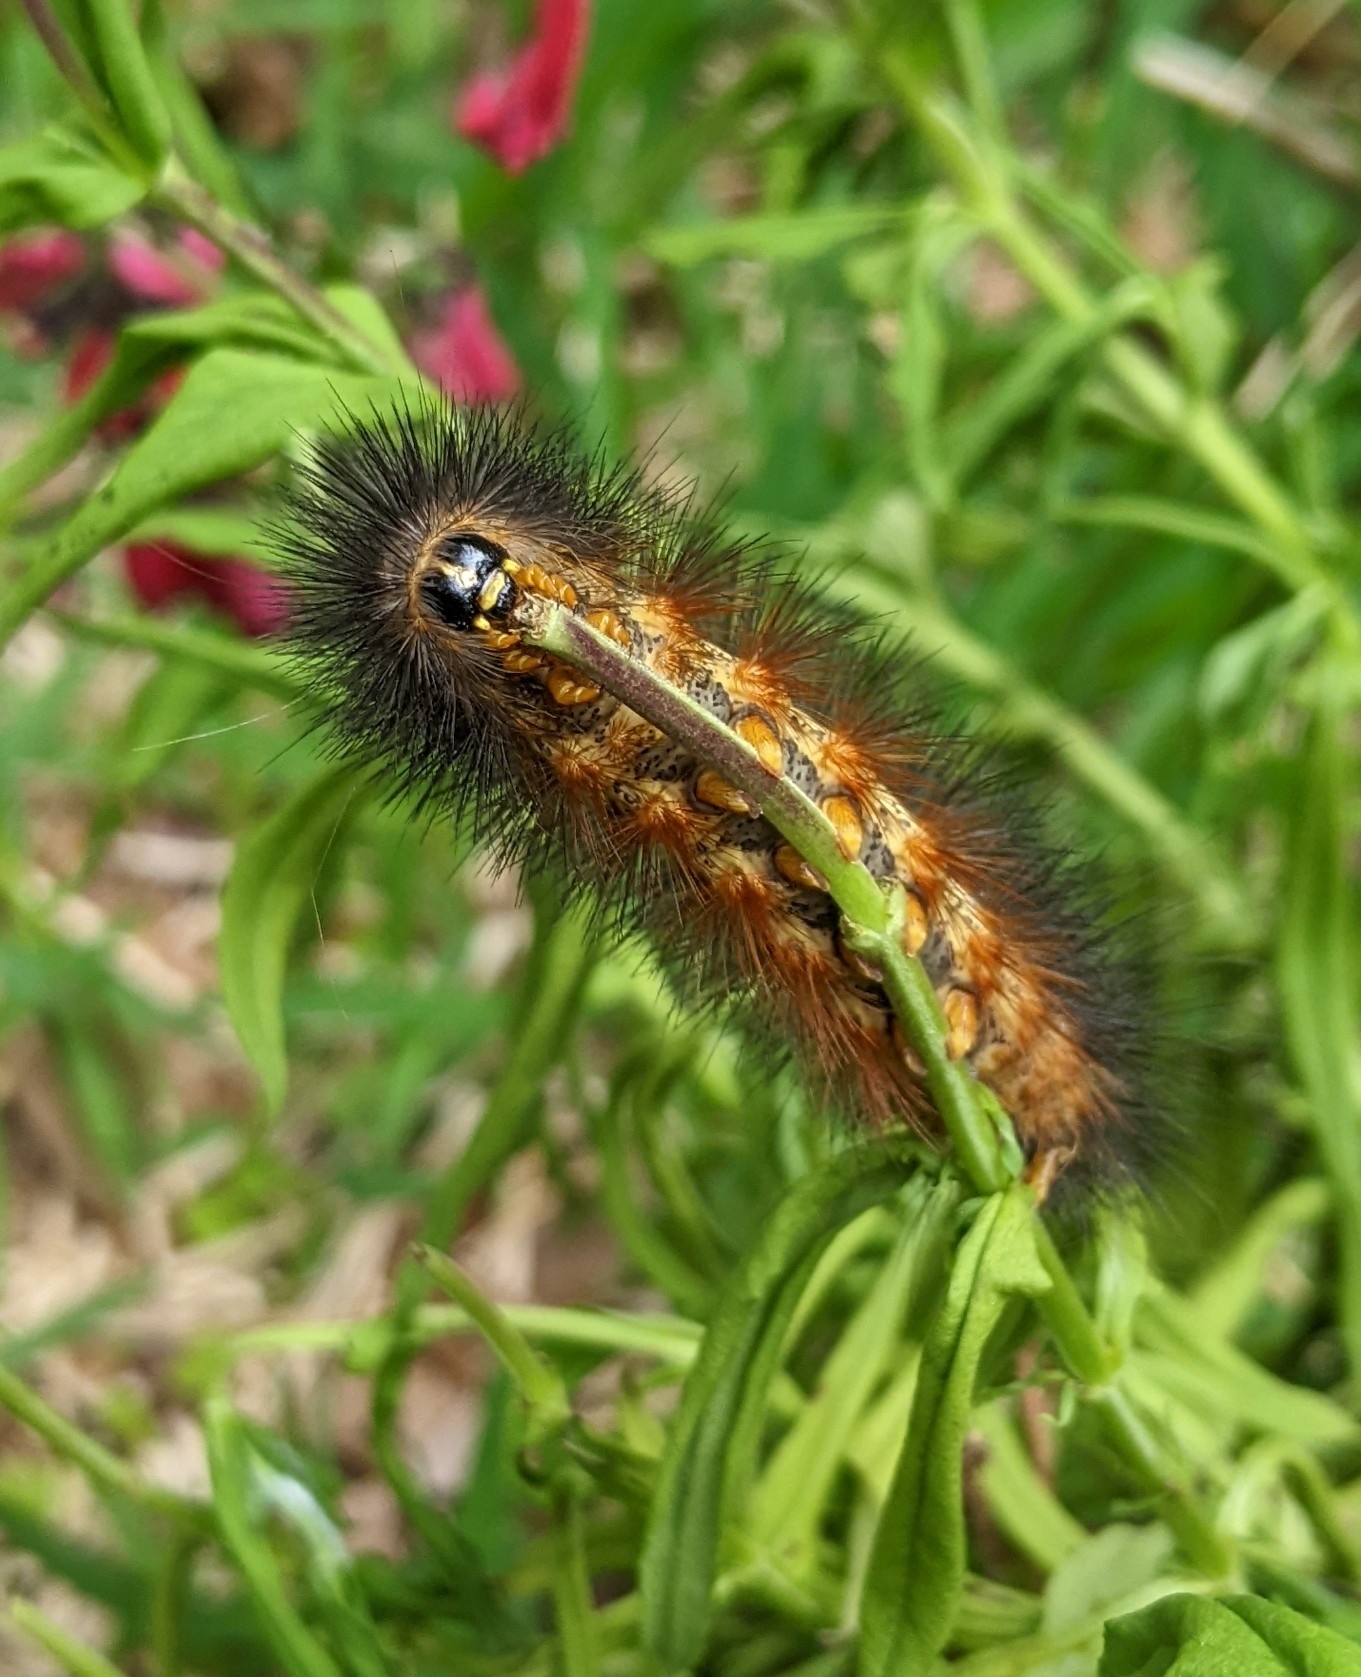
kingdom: Animalia
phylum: Arthropoda
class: Insecta
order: Lepidoptera
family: Erebidae
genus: Estigmene
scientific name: Estigmene acrea
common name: Salt marsh moth
